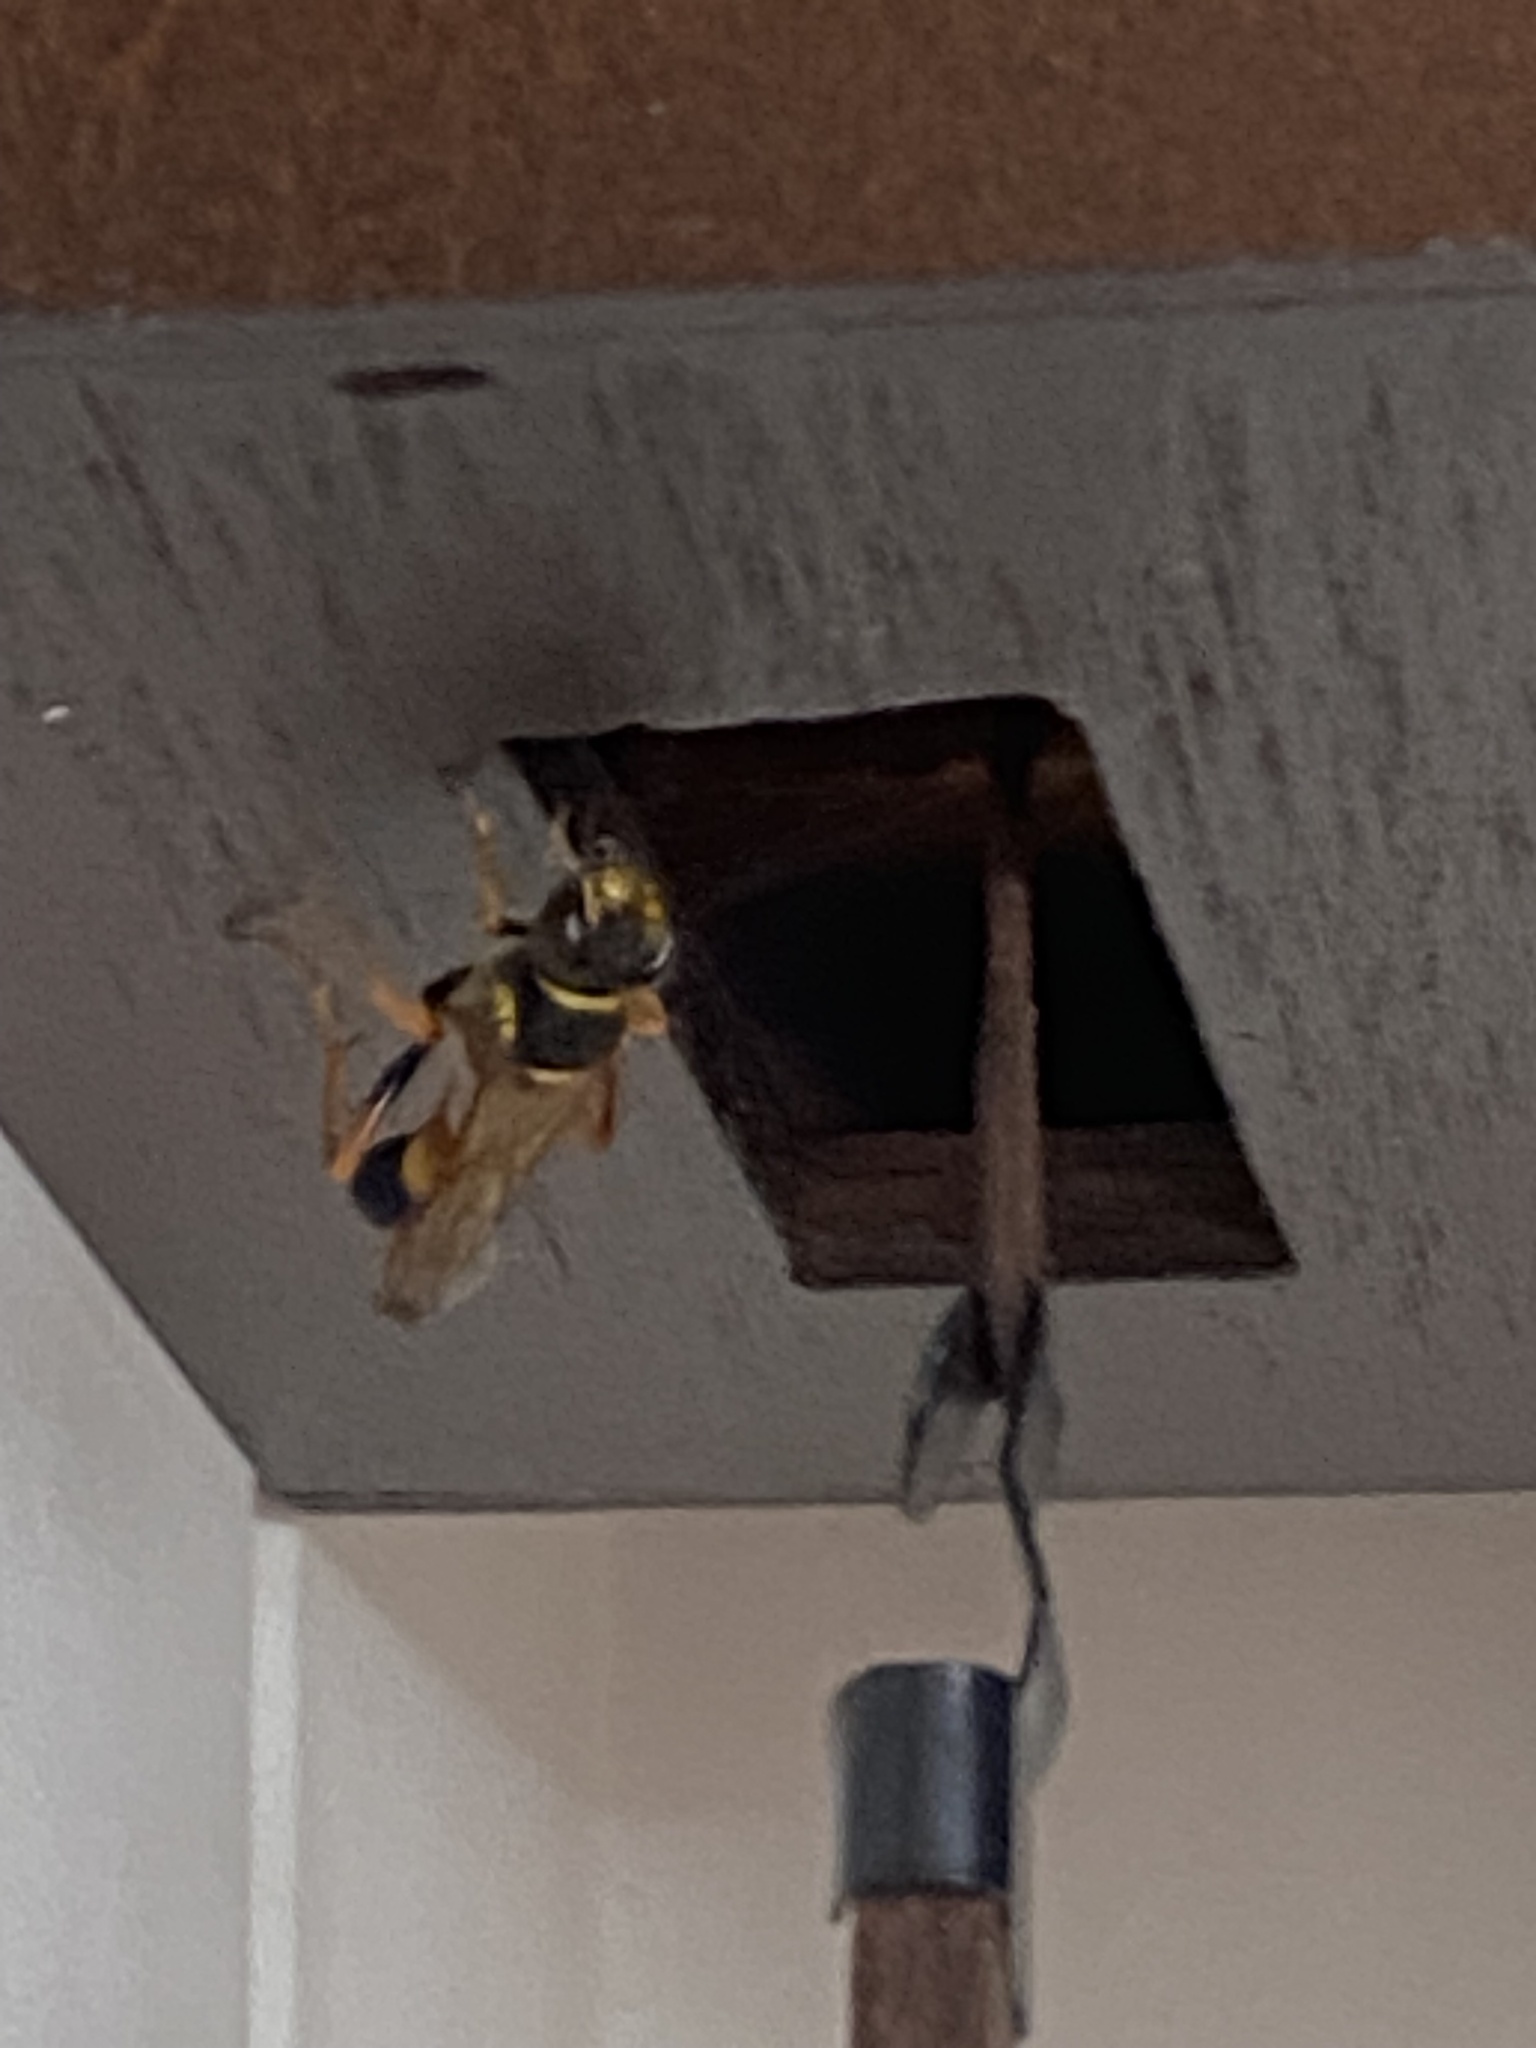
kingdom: Animalia
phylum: Arthropoda
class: Insecta
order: Hymenoptera
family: Sphecidae
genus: Sceliphron
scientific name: Sceliphron formosum
